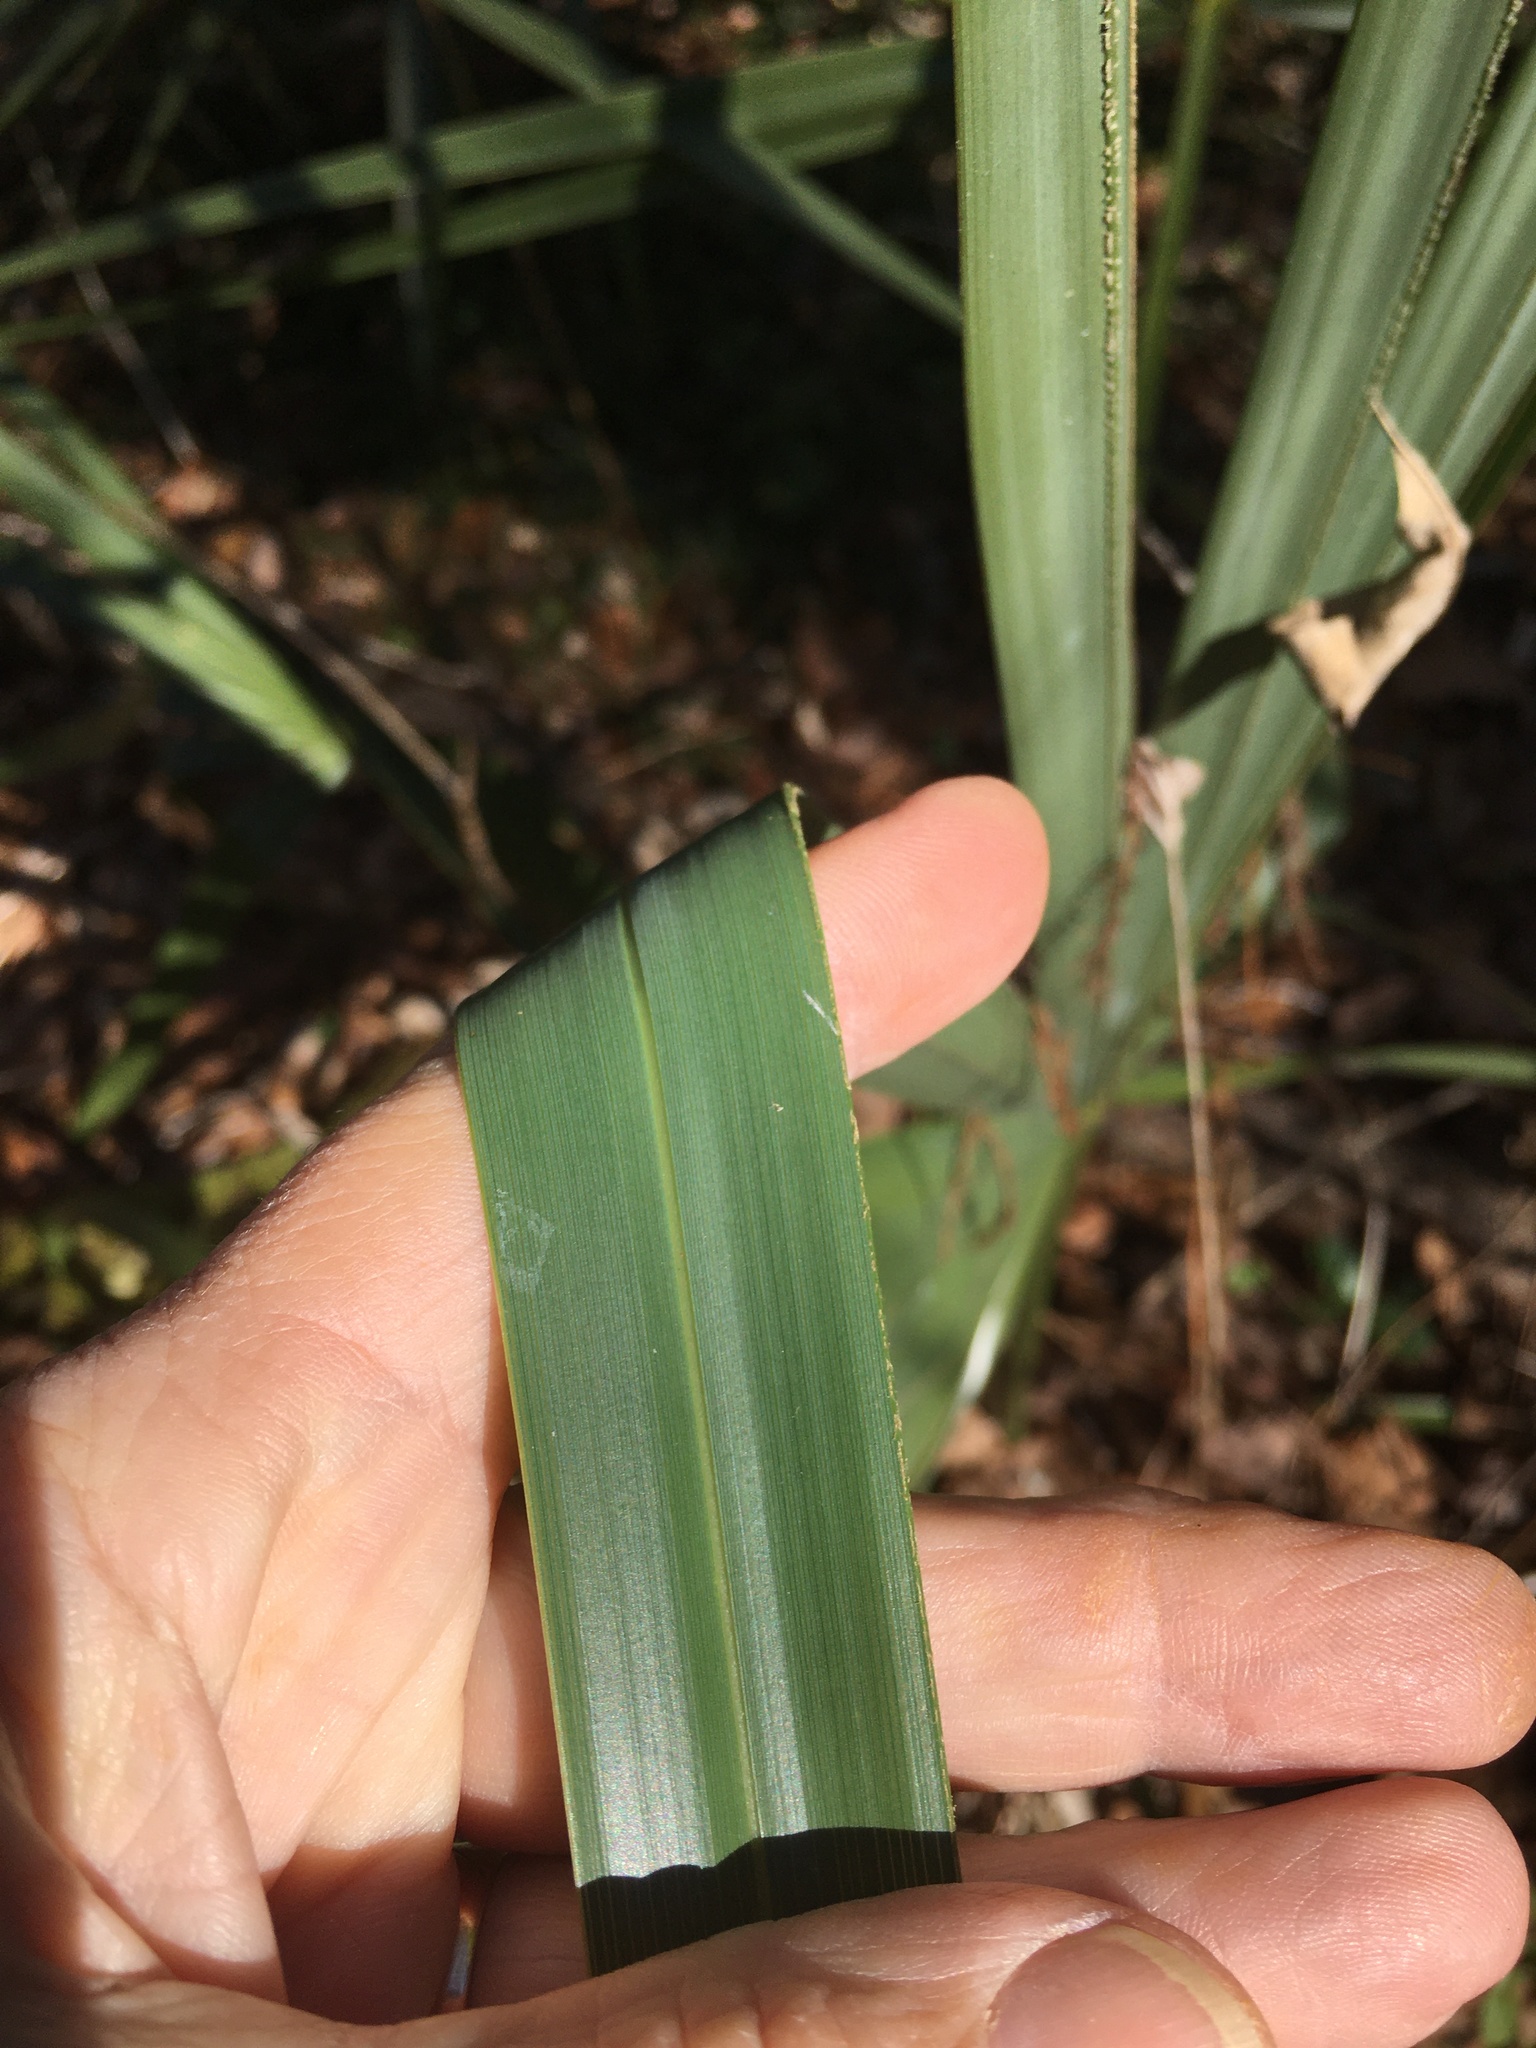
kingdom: Plantae
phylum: Tracheophyta
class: Liliopsida
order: Arecales
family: Arecaceae
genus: Sabal
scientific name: Sabal minor
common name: Dwarf palmetto
